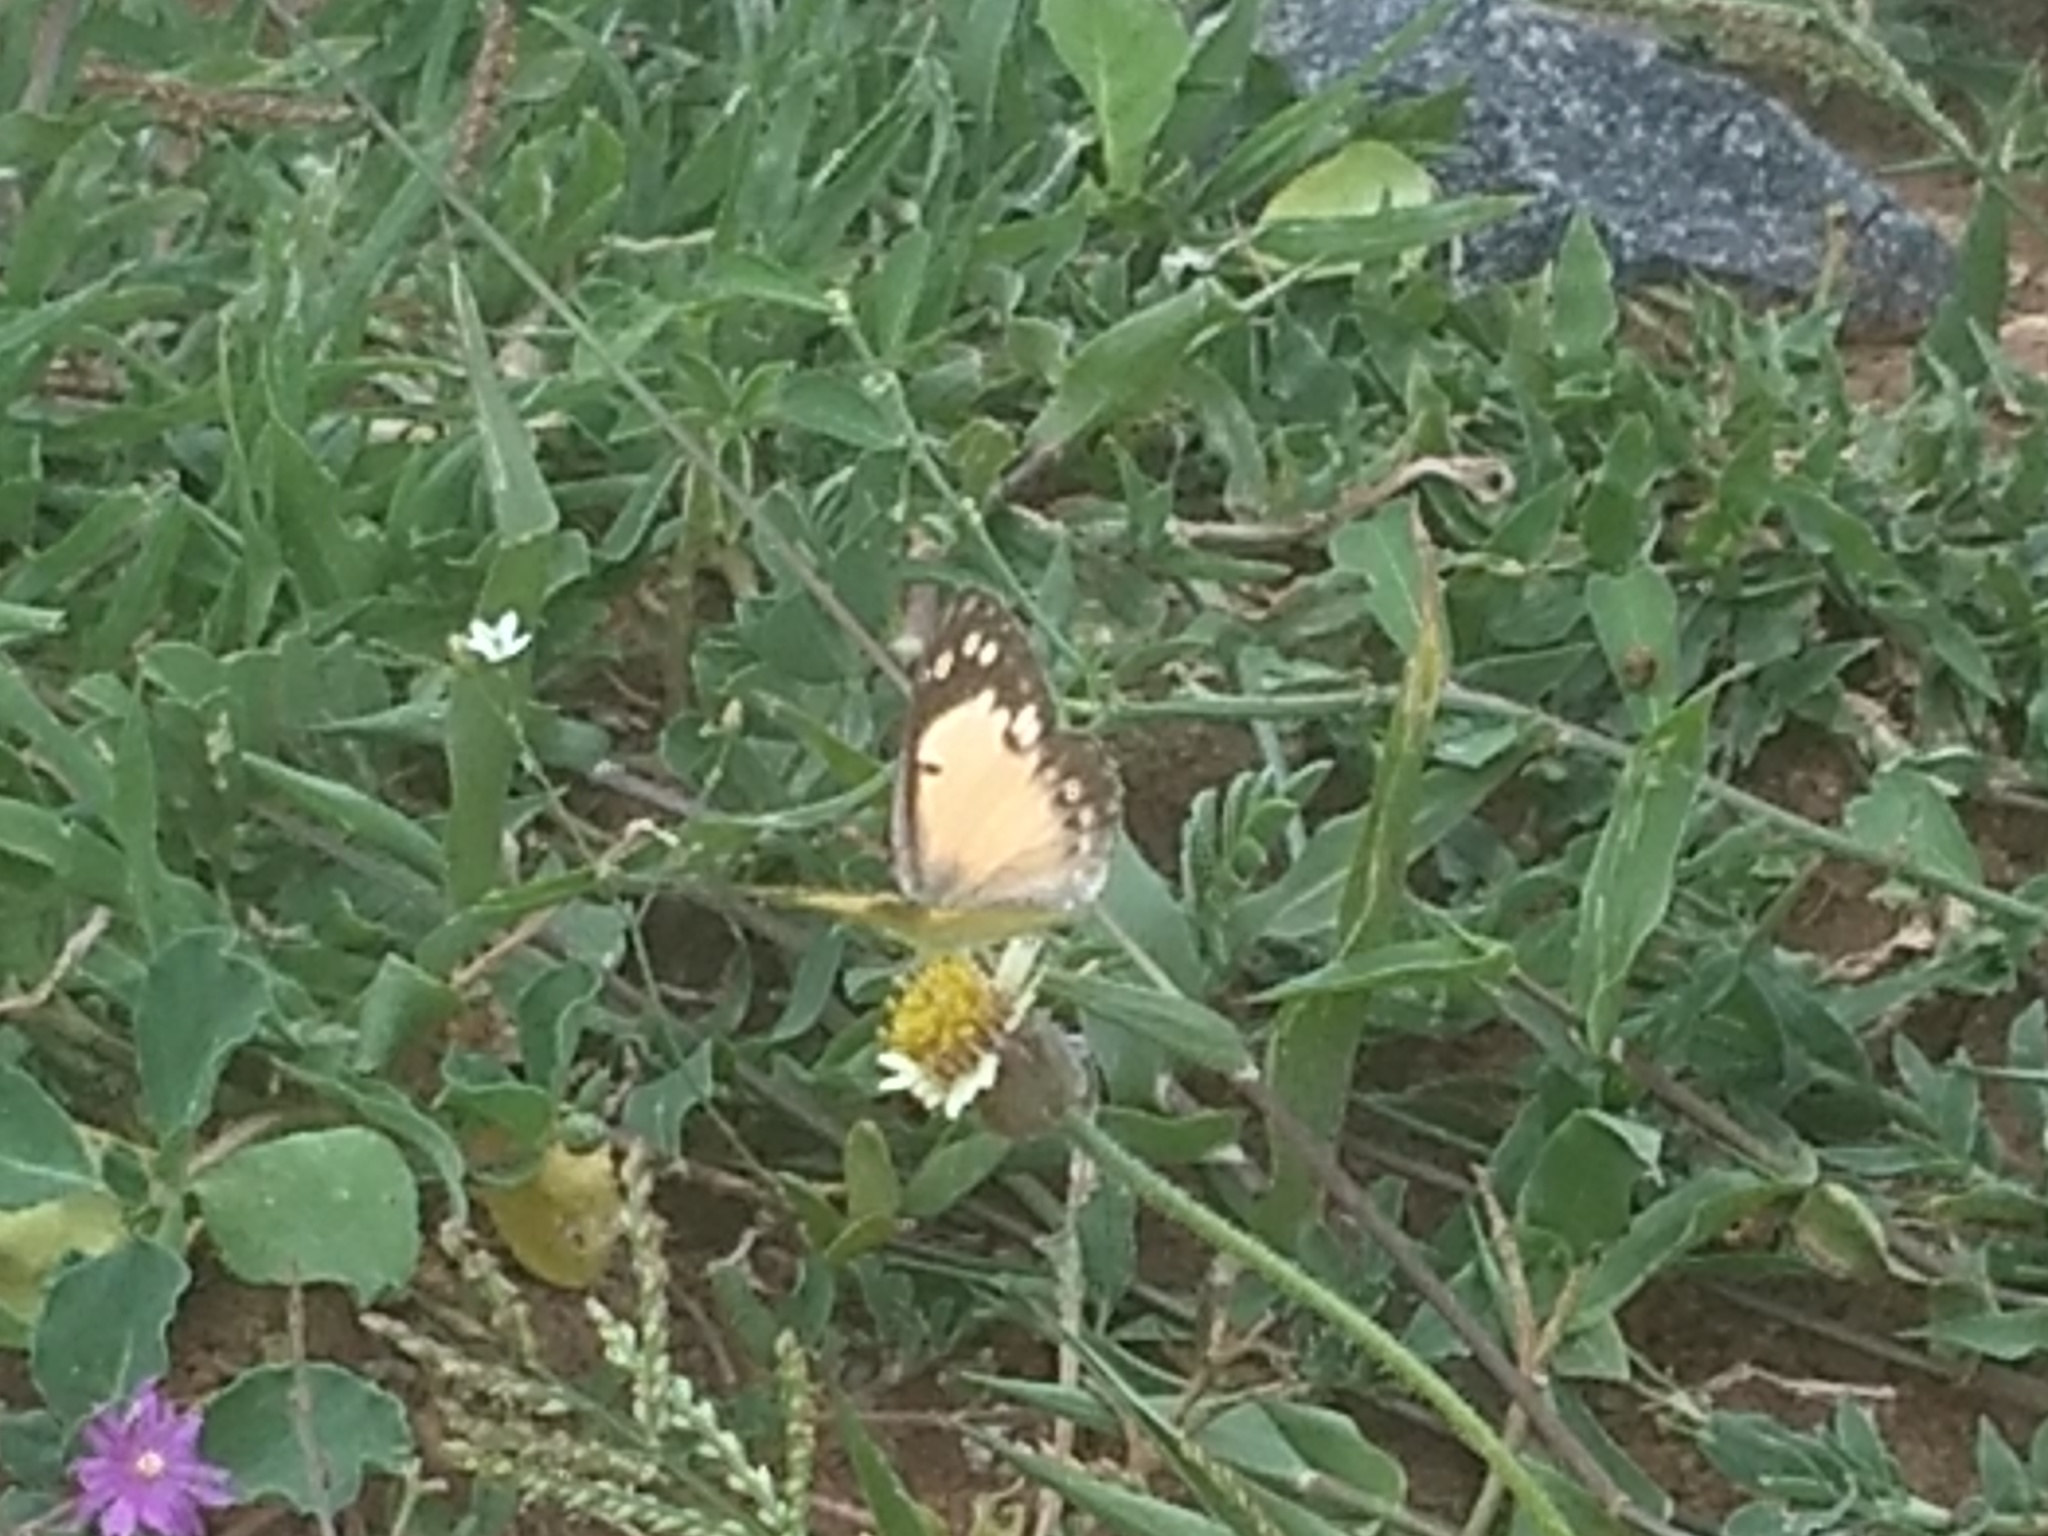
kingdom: Animalia
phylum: Arthropoda
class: Insecta
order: Lepidoptera
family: Pieridae
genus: Colotis
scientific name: Colotis amata
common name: Small salmon arab
